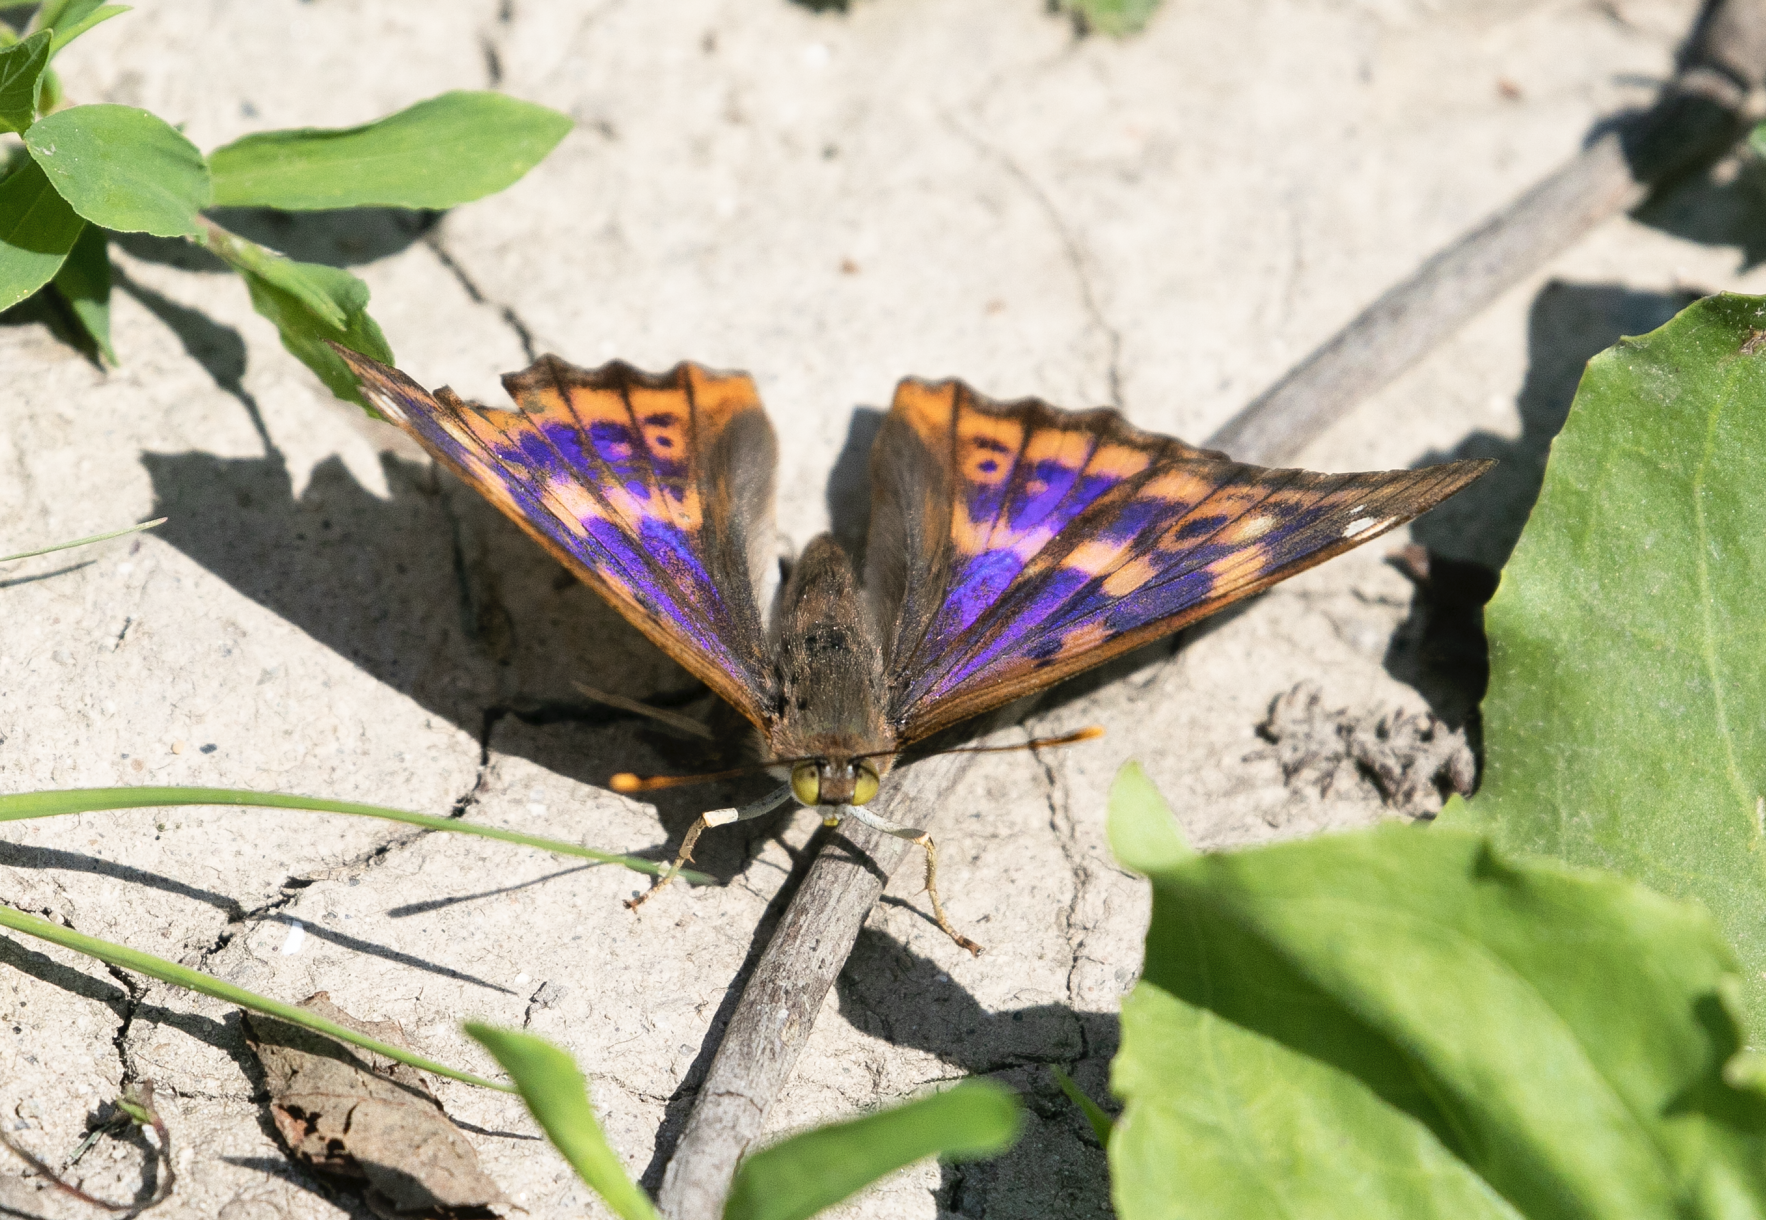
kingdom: Animalia
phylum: Arthropoda
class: Insecta
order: Lepidoptera
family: Nymphalidae
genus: Apatura
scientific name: Apatura ilia
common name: Lesser purple emperor
